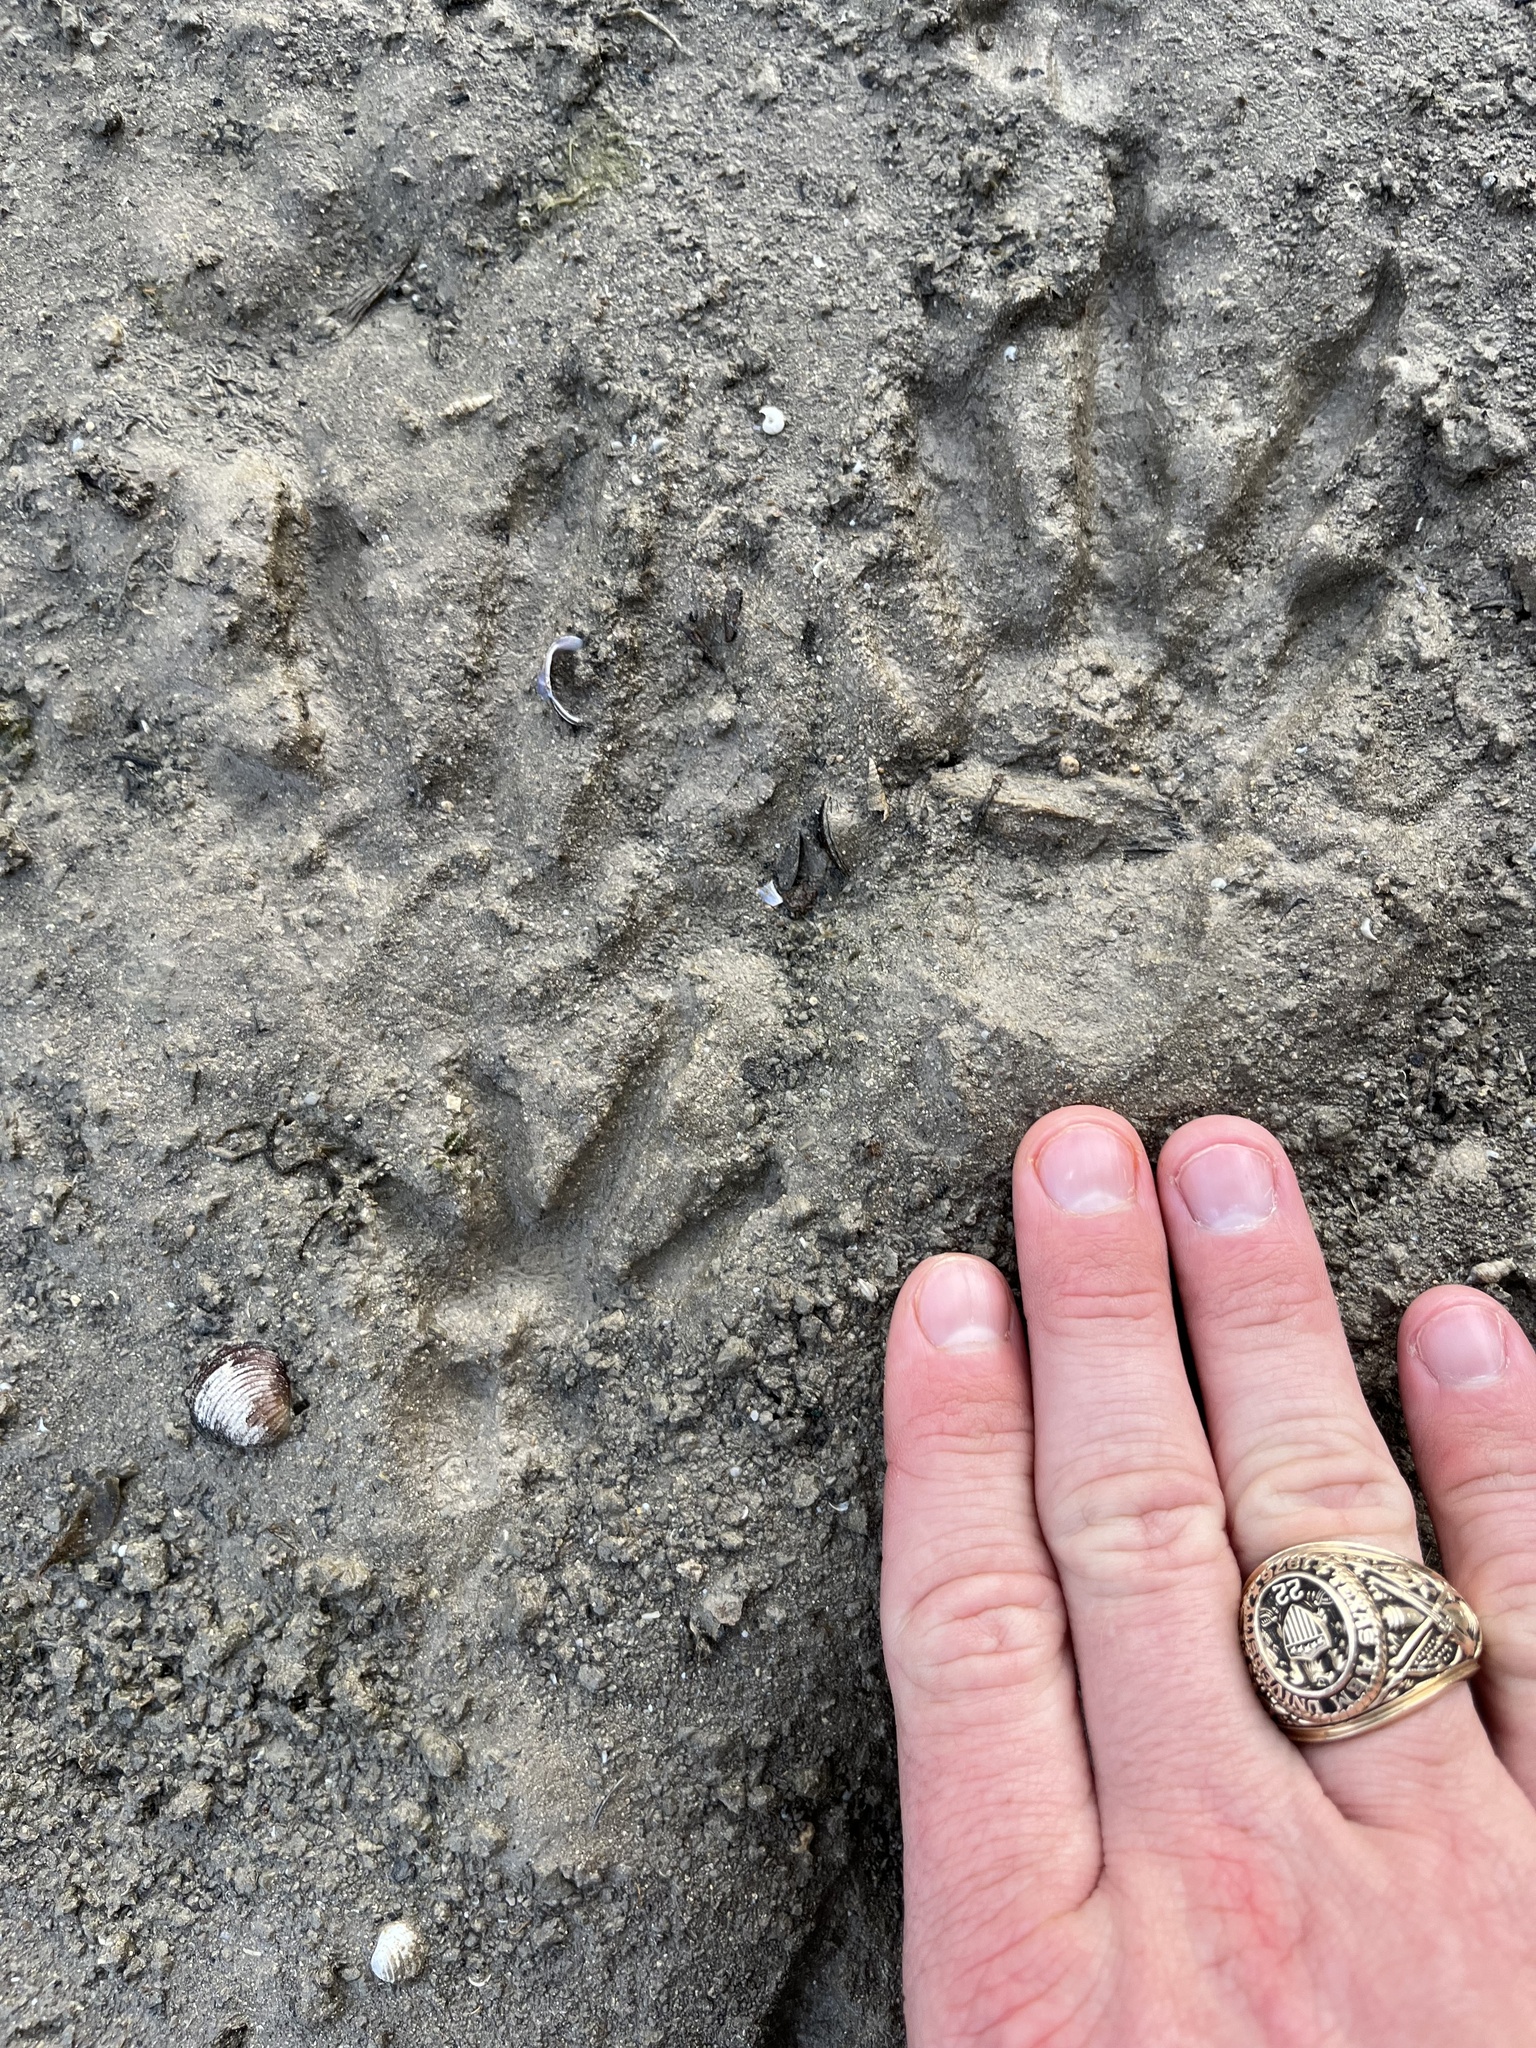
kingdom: Animalia
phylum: Chordata
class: Mammalia
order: Rodentia
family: Myocastoridae
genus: Myocastor
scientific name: Myocastor coypus
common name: Coypu
